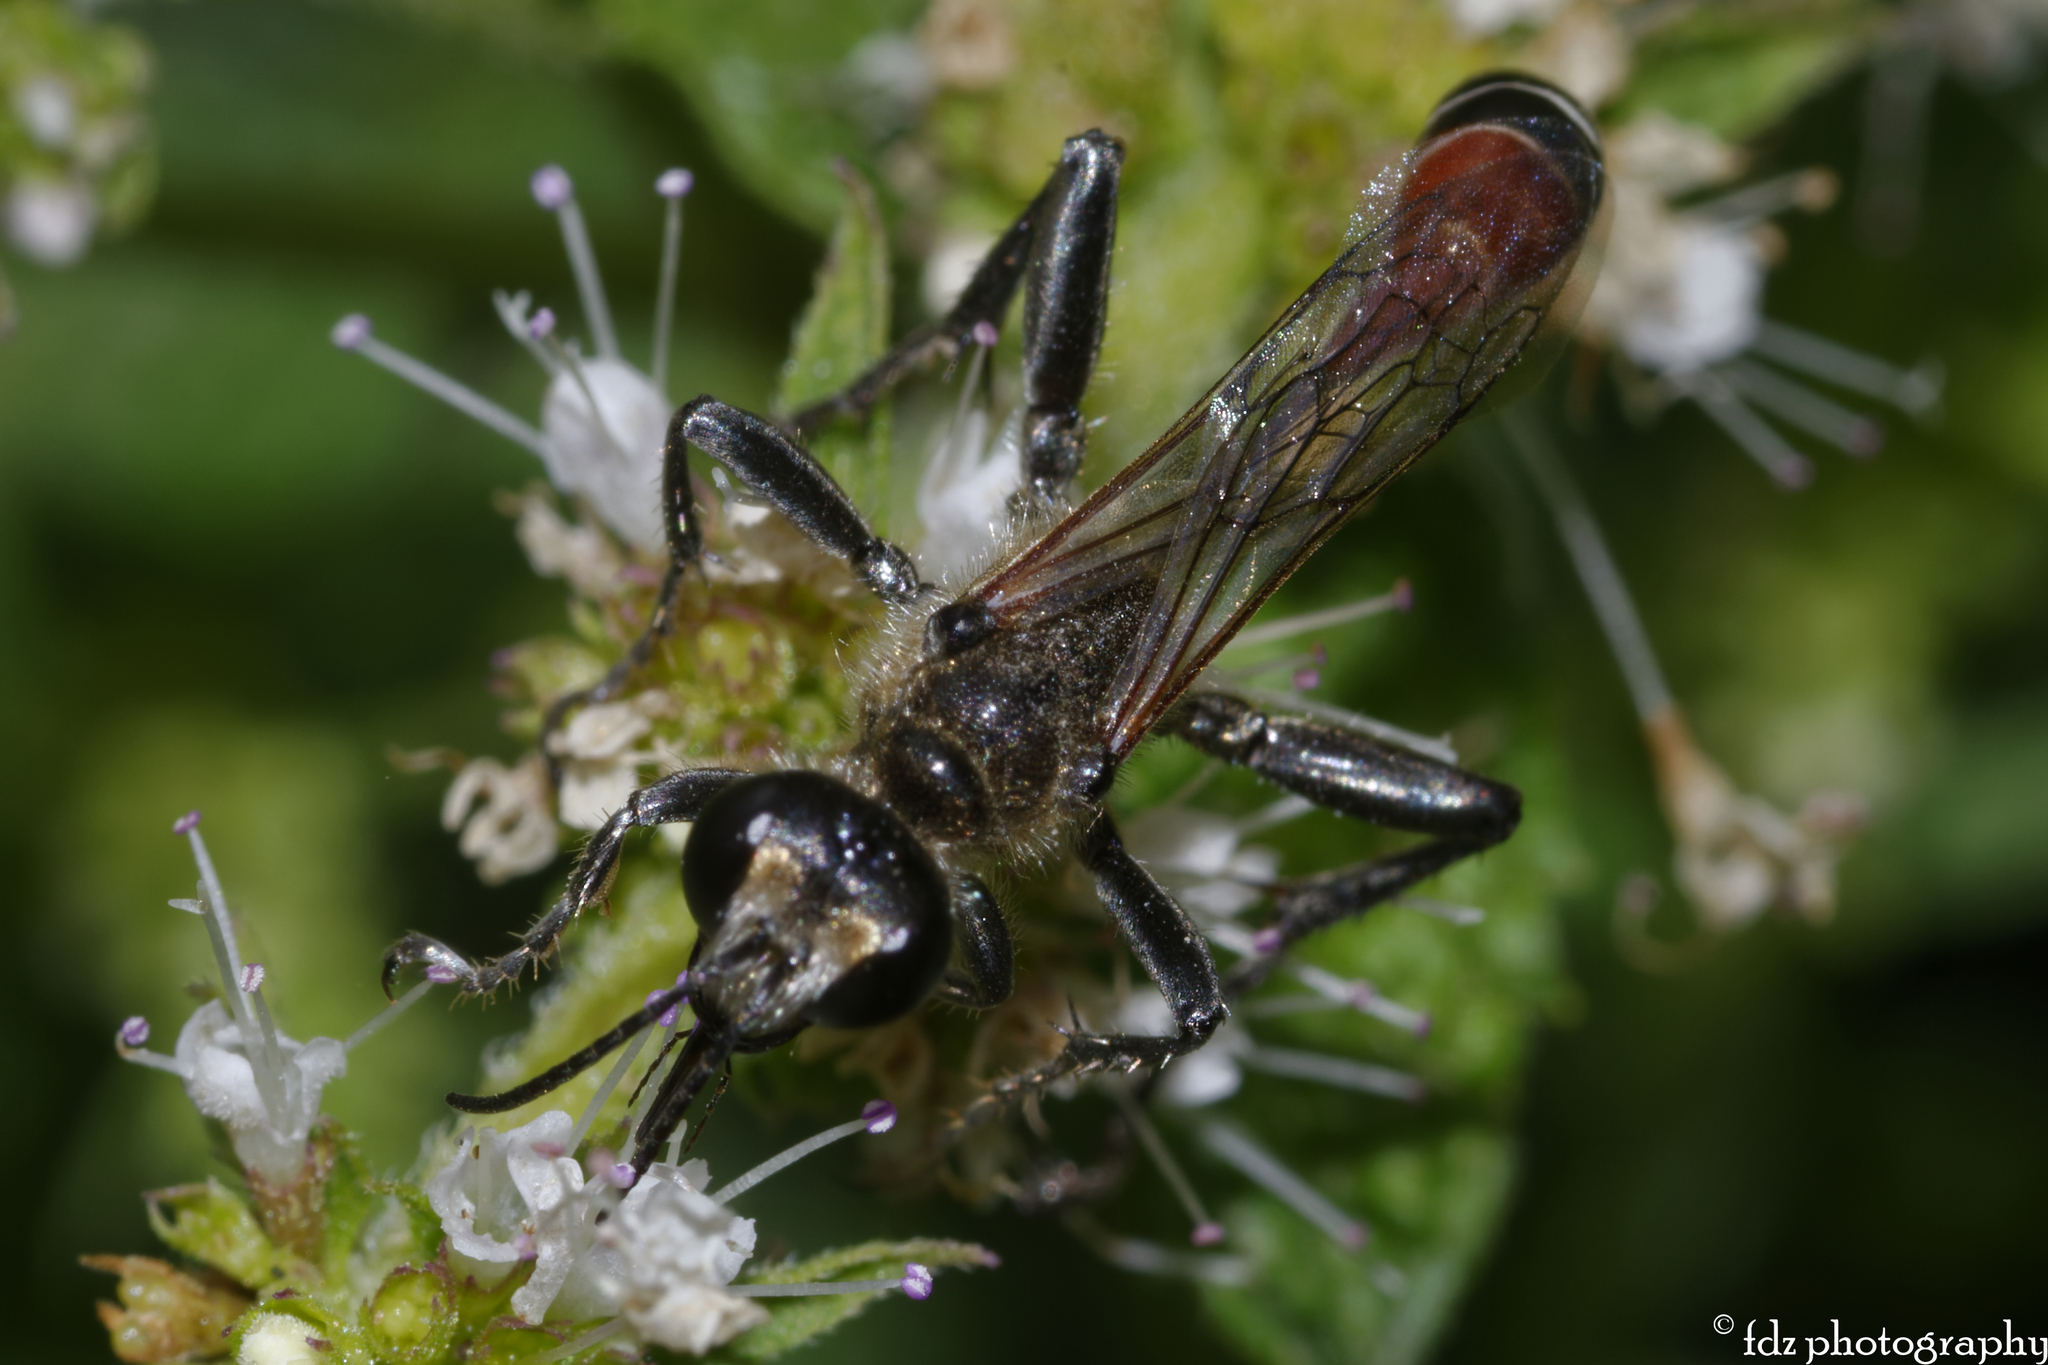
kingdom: Animalia
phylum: Arthropoda
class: Insecta
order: Hymenoptera
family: Sphecidae
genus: Prionyx
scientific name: Prionyx kirbii
